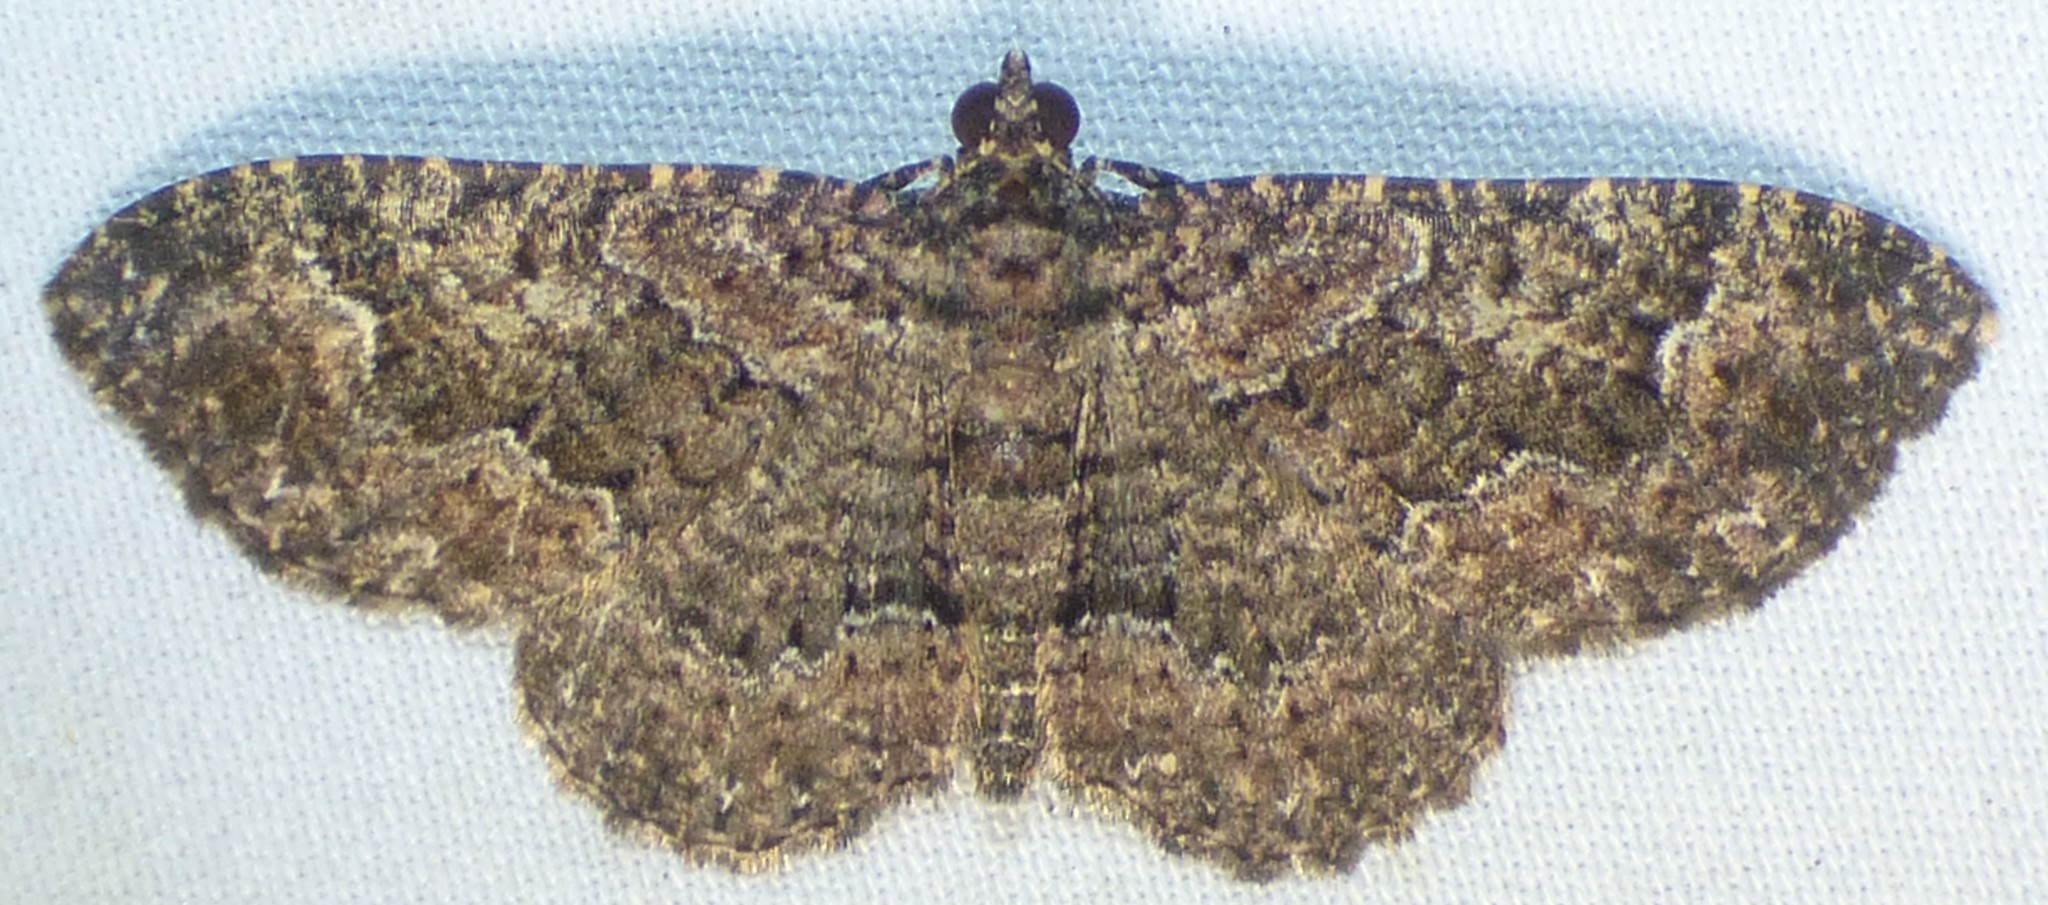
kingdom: Animalia
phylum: Arthropoda
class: Insecta
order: Lepidoptera
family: Geometridae
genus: Disclisioprocta
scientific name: Disclisioprocta stellata
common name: Somber carpet
